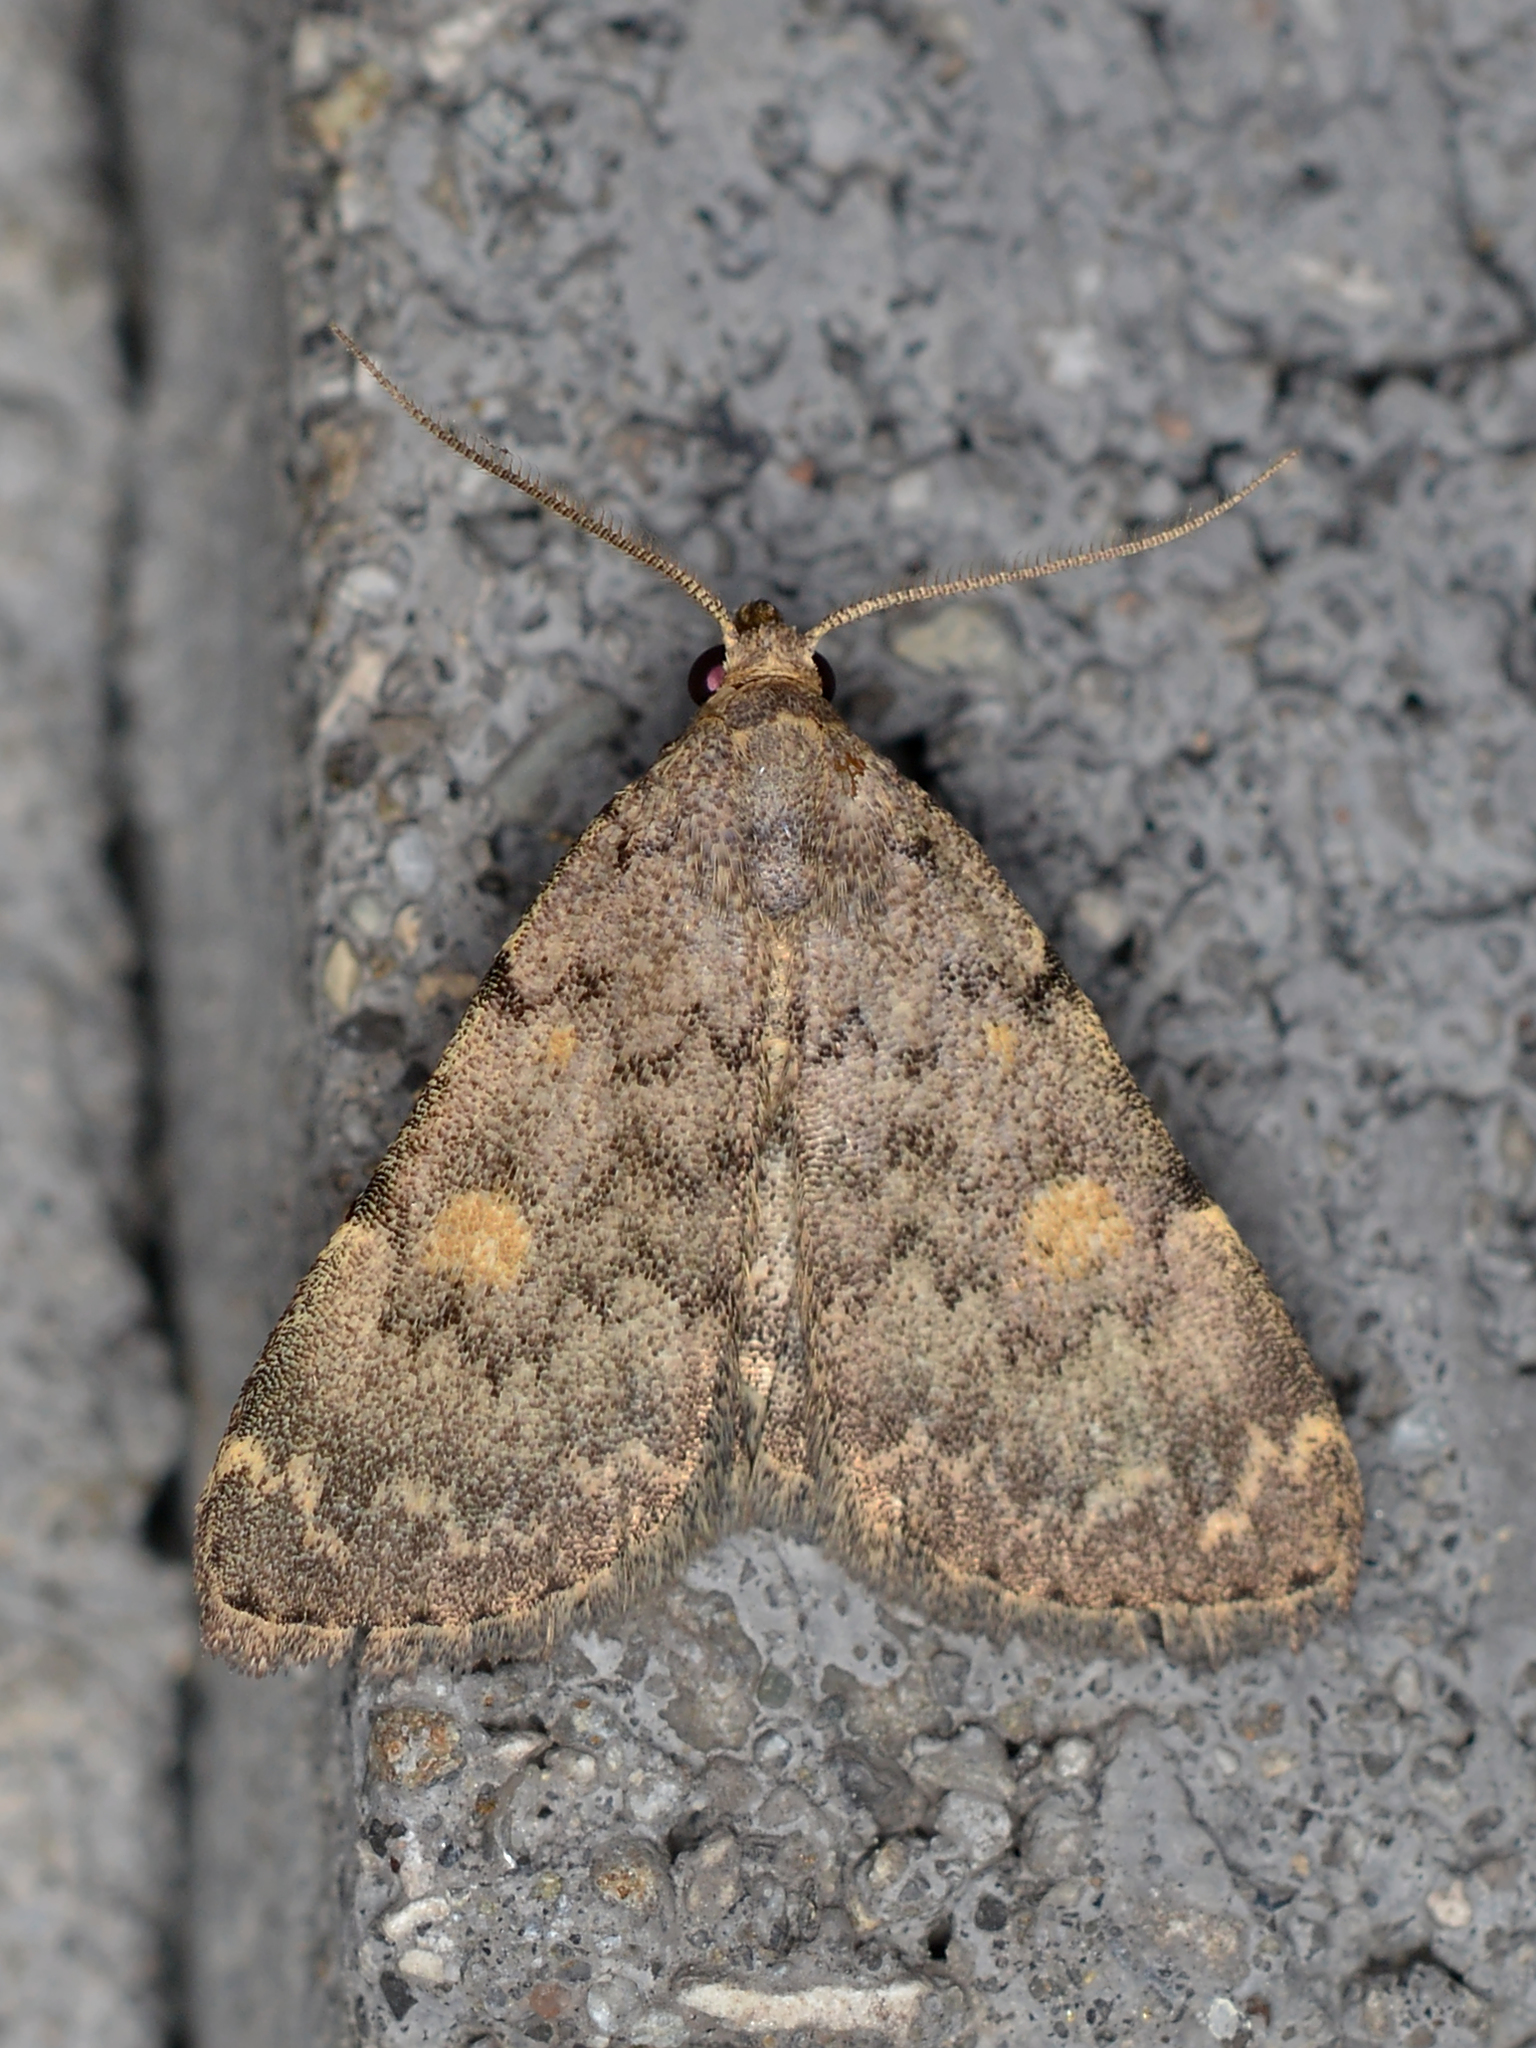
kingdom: Animalia
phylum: Arthropoda
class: Insecta
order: Lepidoptera
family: Erebidae
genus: Idia
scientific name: Idia aemula
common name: Common idia moth
